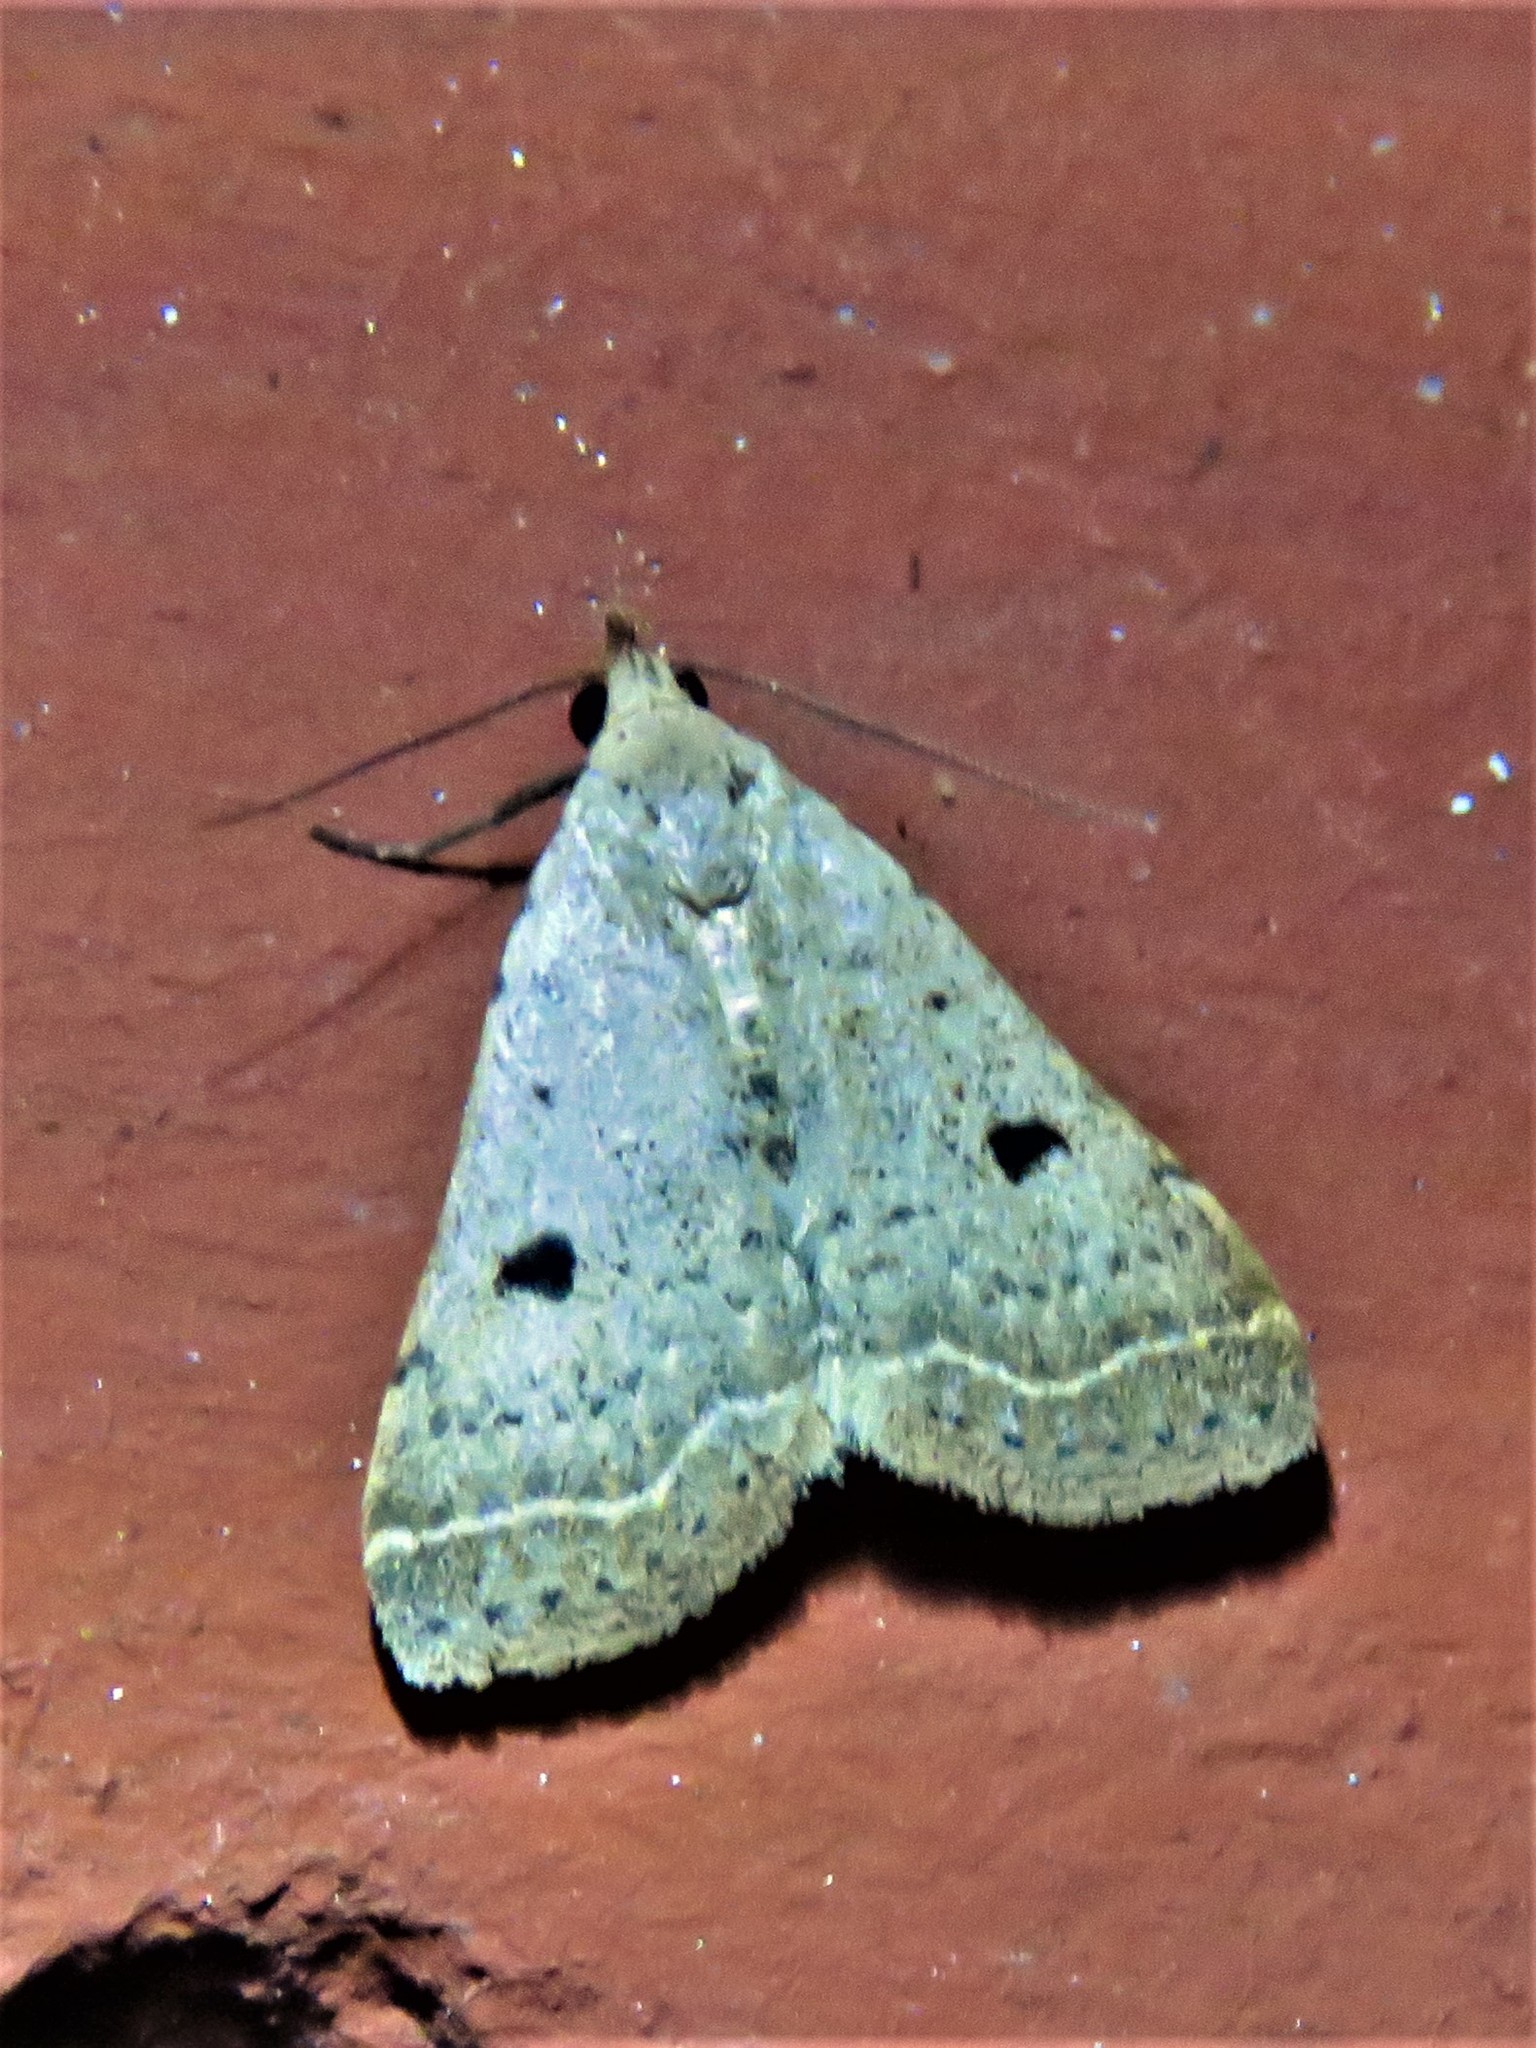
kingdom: Animalia
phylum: Arthropoda
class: Insecta
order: Lepidoptera
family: Erebidae
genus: Bleptina
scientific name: Bleptina caradrinalis
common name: Bent-winged owlet
